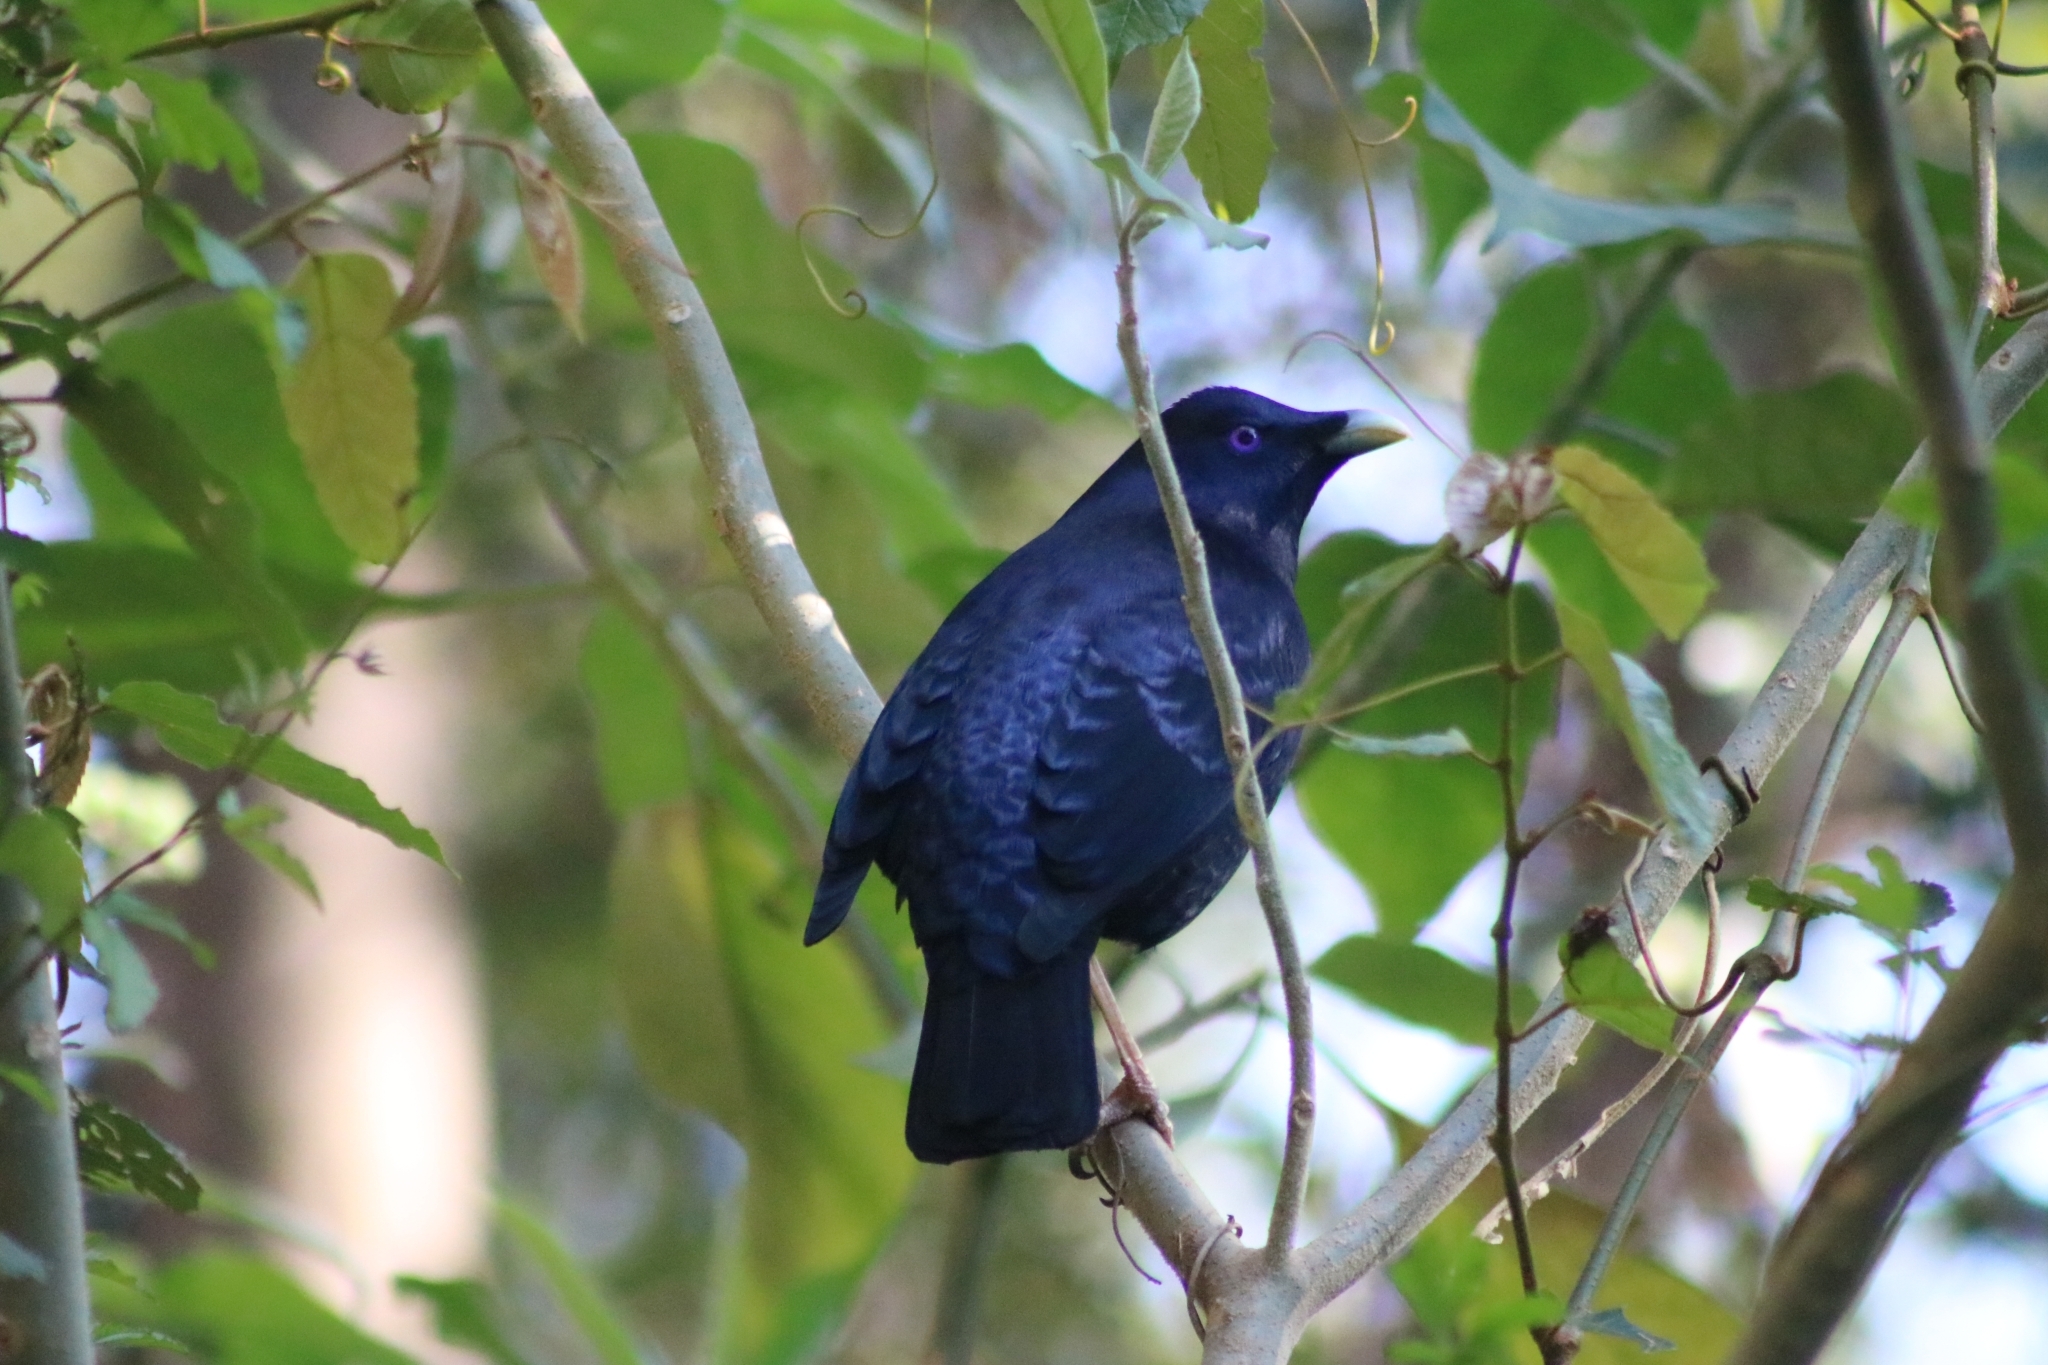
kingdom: Animalia
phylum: Chordata
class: Aves
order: Passeriformes
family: Ptilonorhynchidae
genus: Ptilonorhynchus
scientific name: Ptilonorhynchus violaceus
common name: Satin bowerbird
